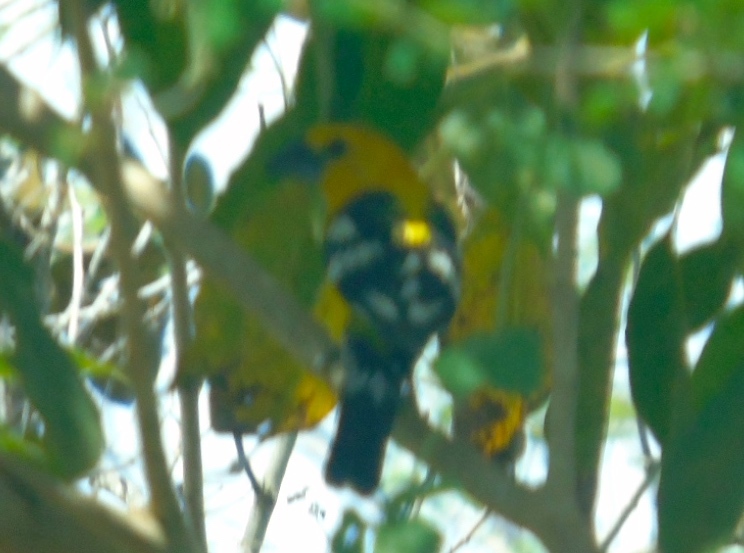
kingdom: Animalia
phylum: Chordata
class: Aves
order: Passeriformes
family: Cardinalidae
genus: Pheucticus
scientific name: Pheucticus chrysopeplus
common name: Yellow grosbeak
